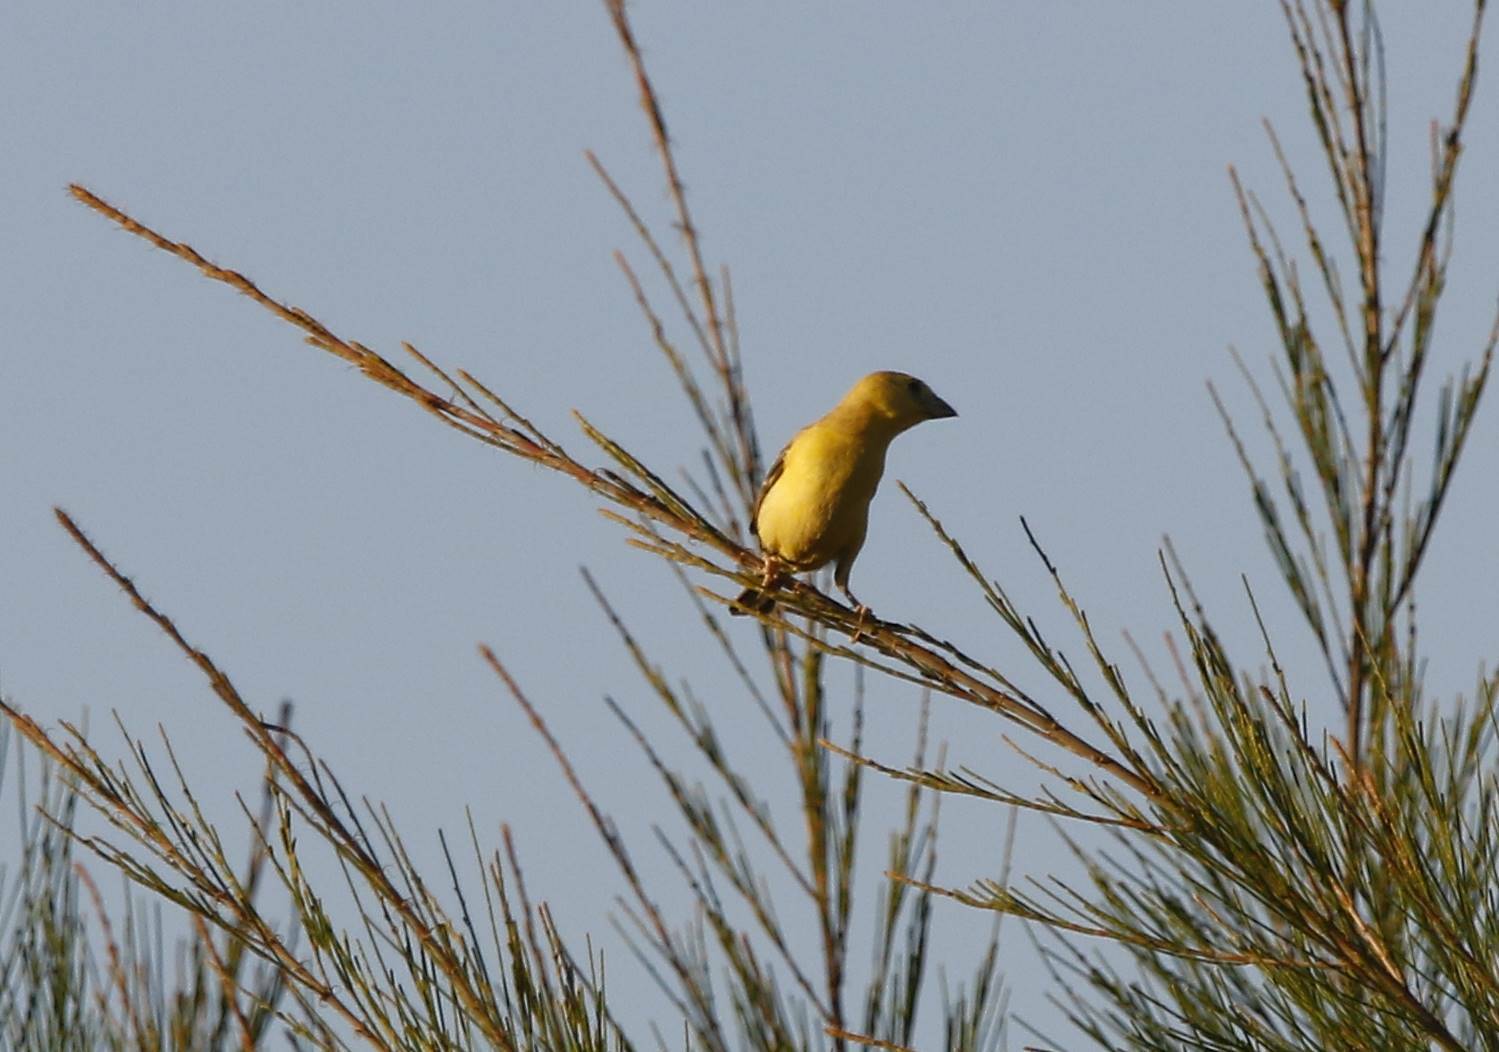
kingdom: Animalia
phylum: Chordata
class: Aves
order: Passeriformes
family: Passeridae
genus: Passer
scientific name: Passer luteus
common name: Sudan golden sparrow
